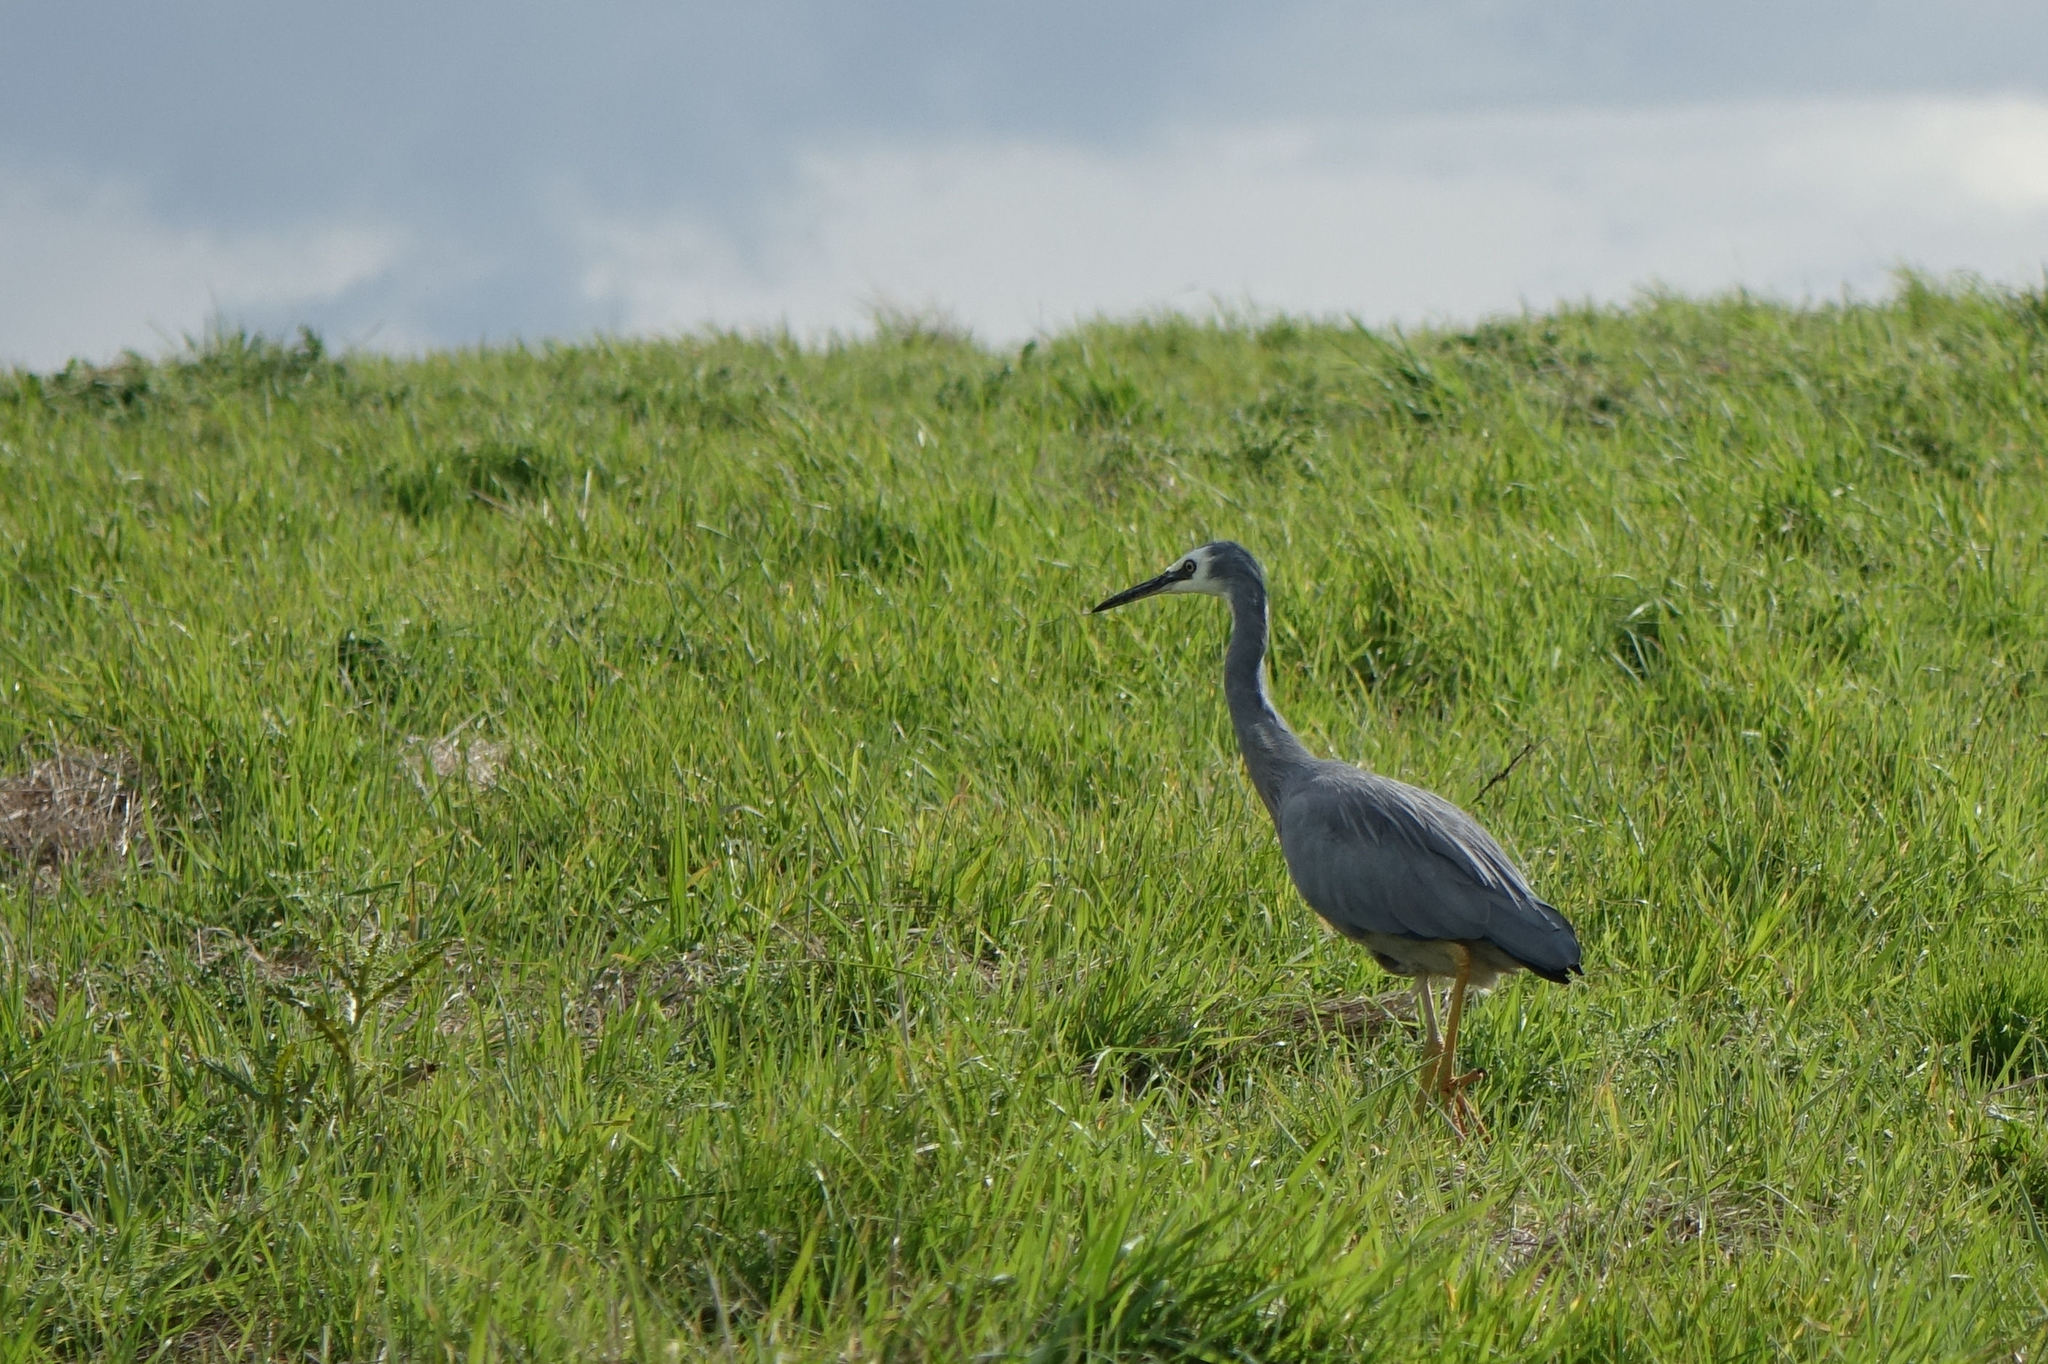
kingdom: Animalia
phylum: Chordata
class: Aves
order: Pelecaniformes
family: Ardeidae
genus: Egretta
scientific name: Egretta novaehollandiae
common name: White-faced heron
